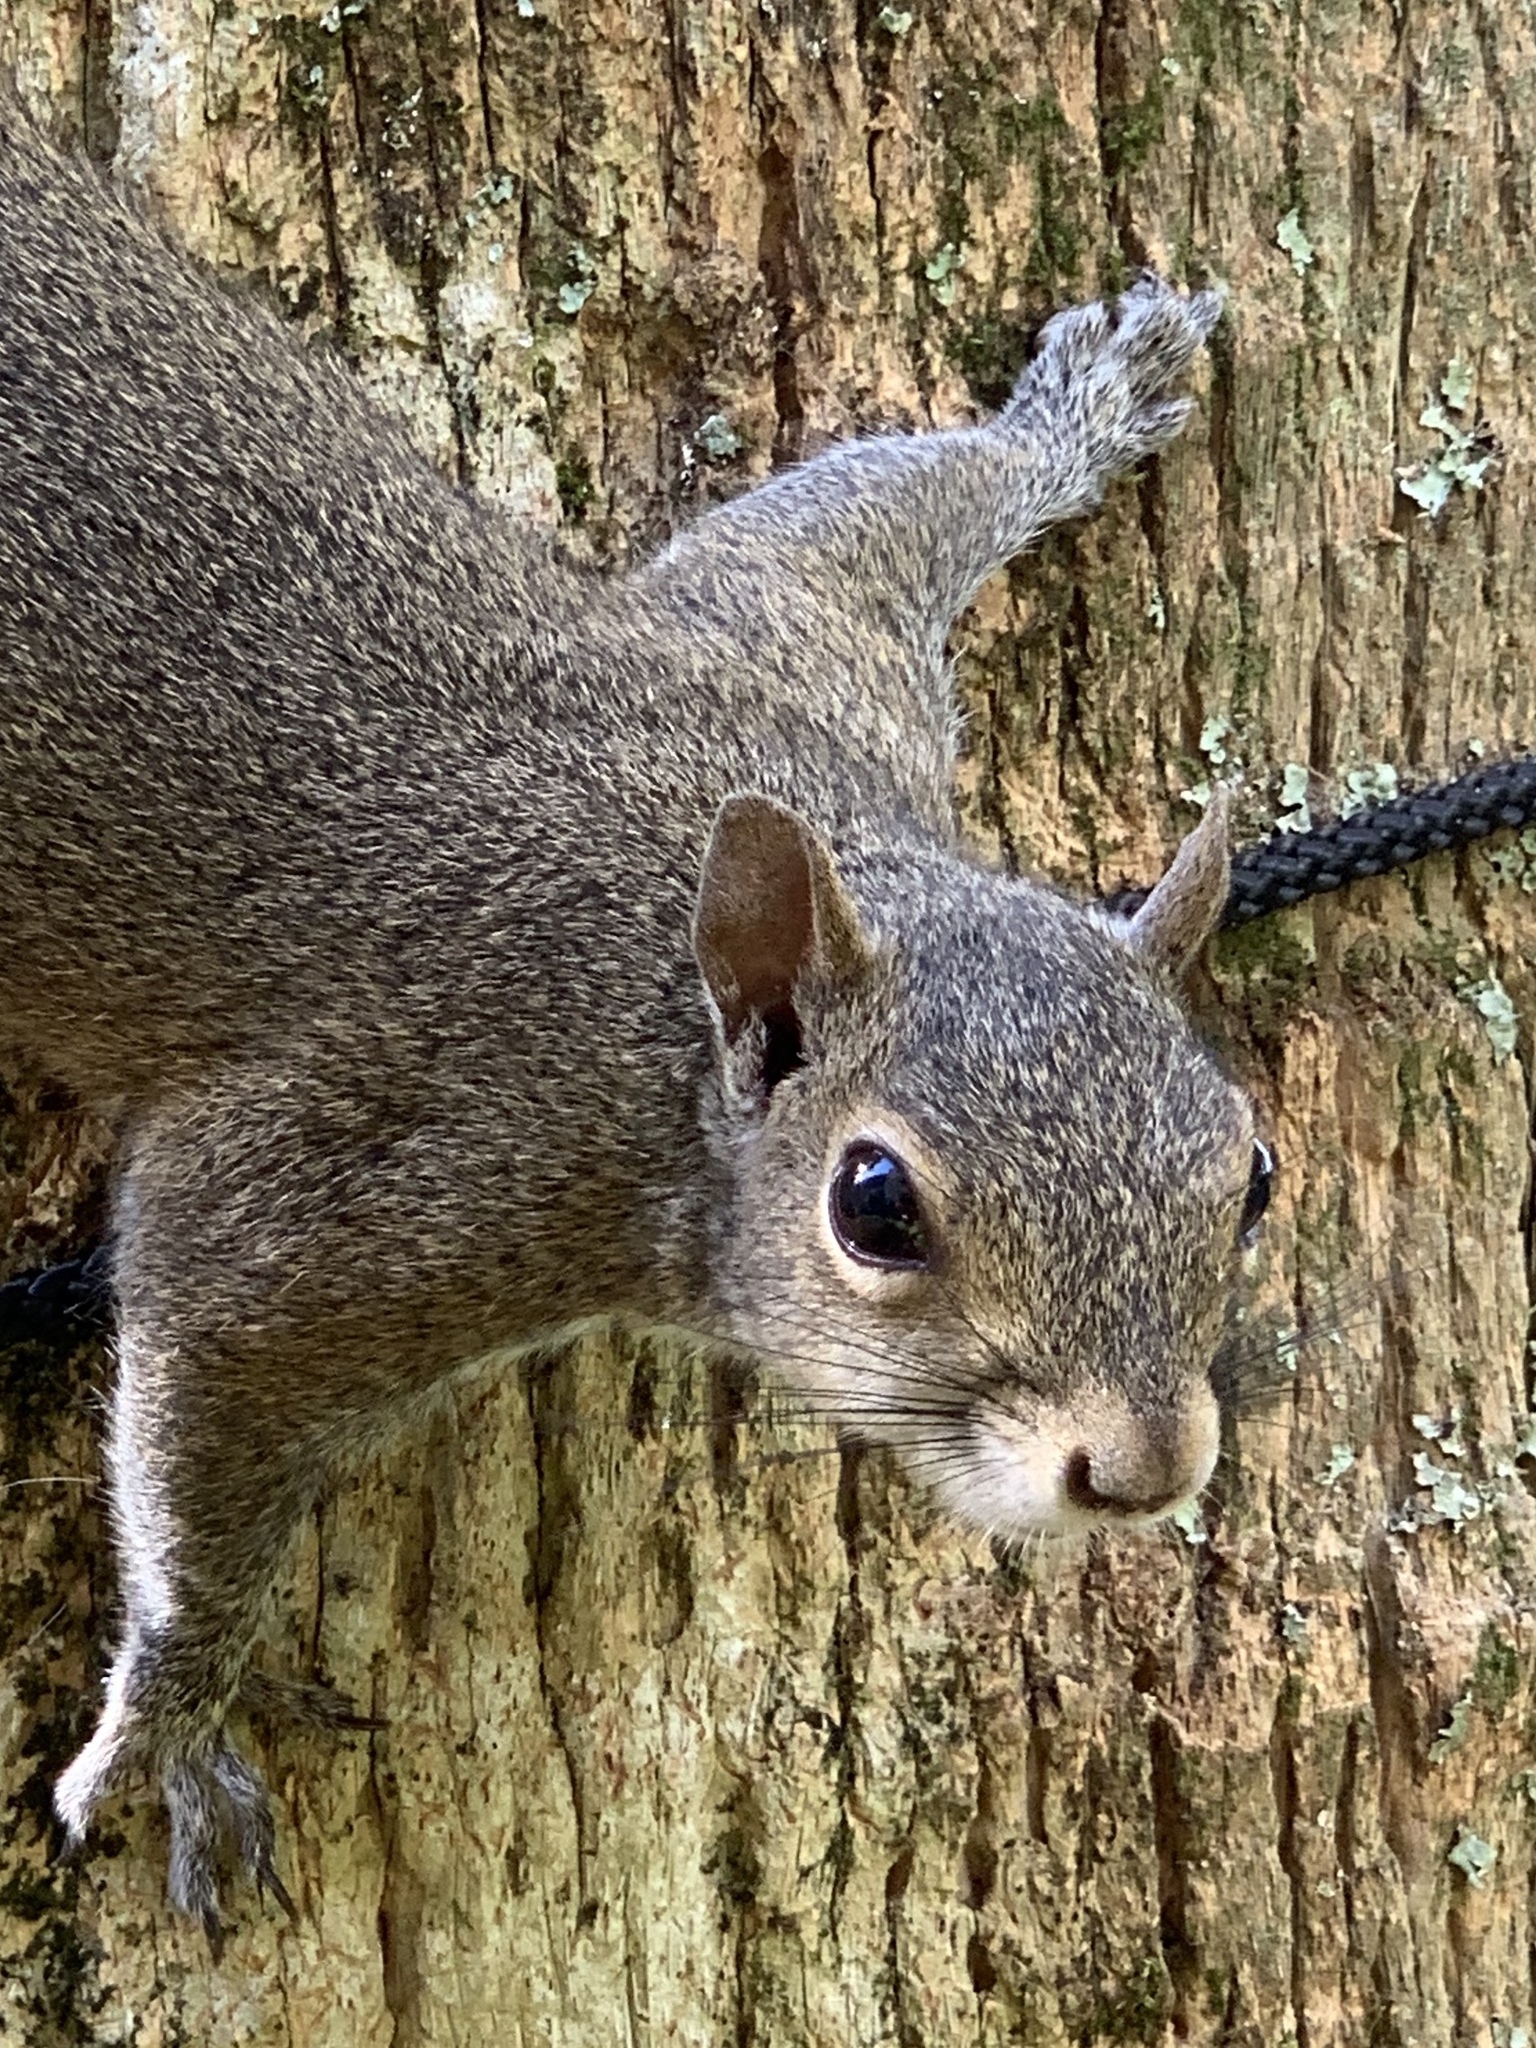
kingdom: Animalia
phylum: Chordata
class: Mammalia
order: Rodentia
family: Sciuridae
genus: Sciurus
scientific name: Sciurus carolinensis
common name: Eastern gray squirrel
